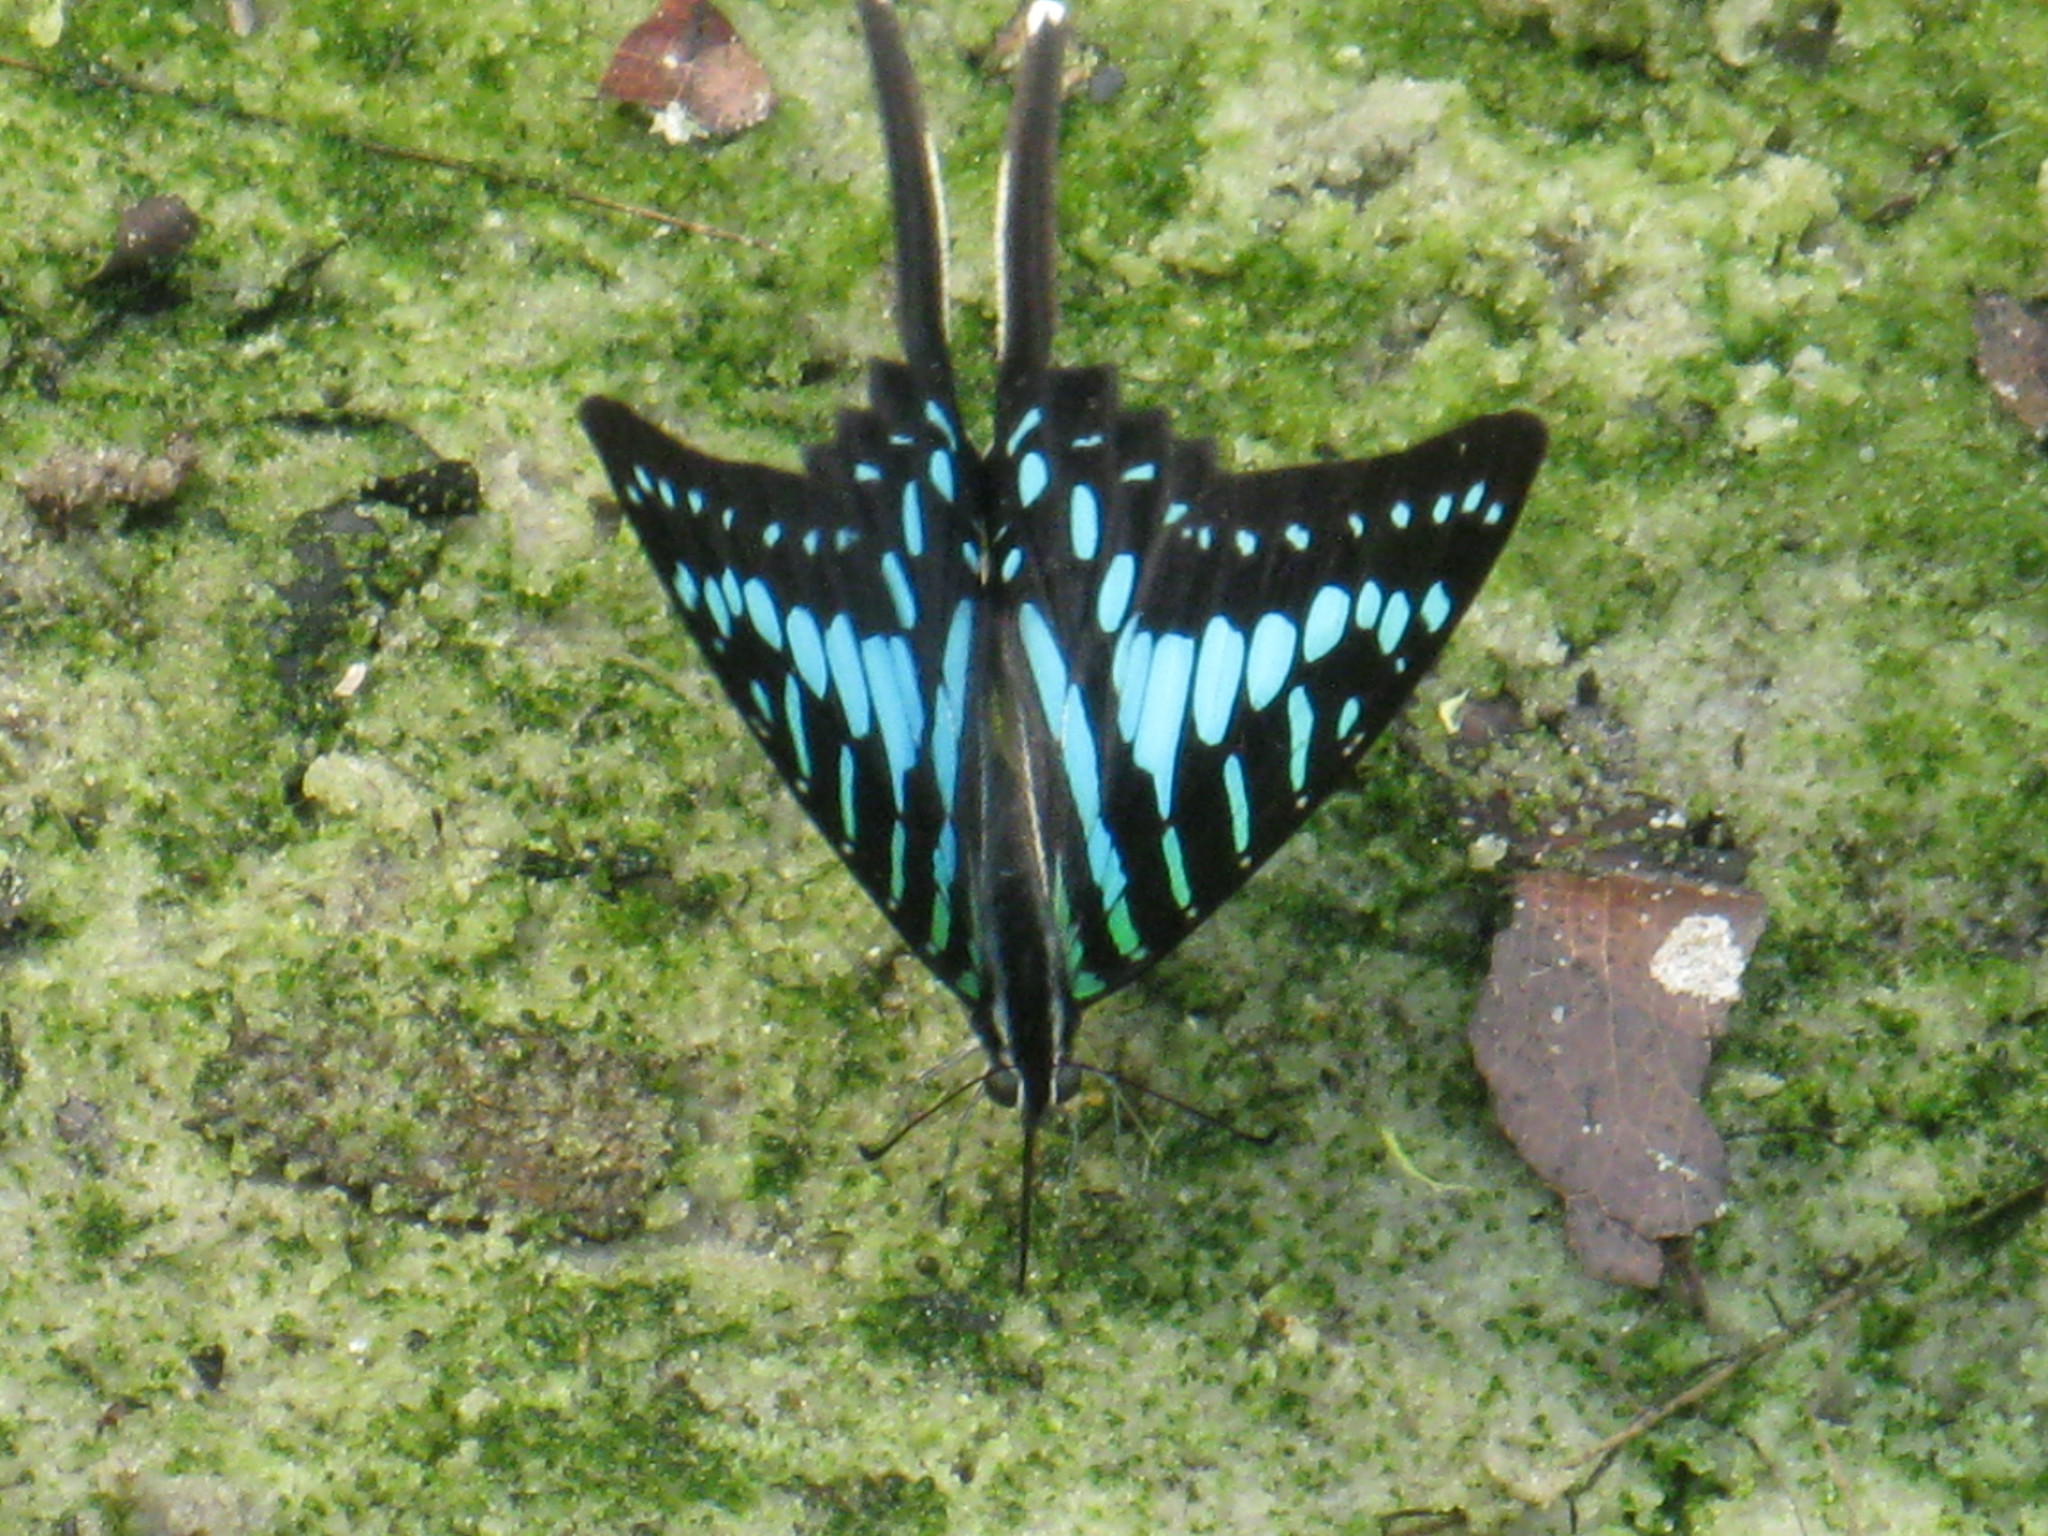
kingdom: Animalia
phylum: Arthropoda
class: Insecta
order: Lepidoptera
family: Papilionidae
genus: Graphium
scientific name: Graphium policenes
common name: Common swordtail
